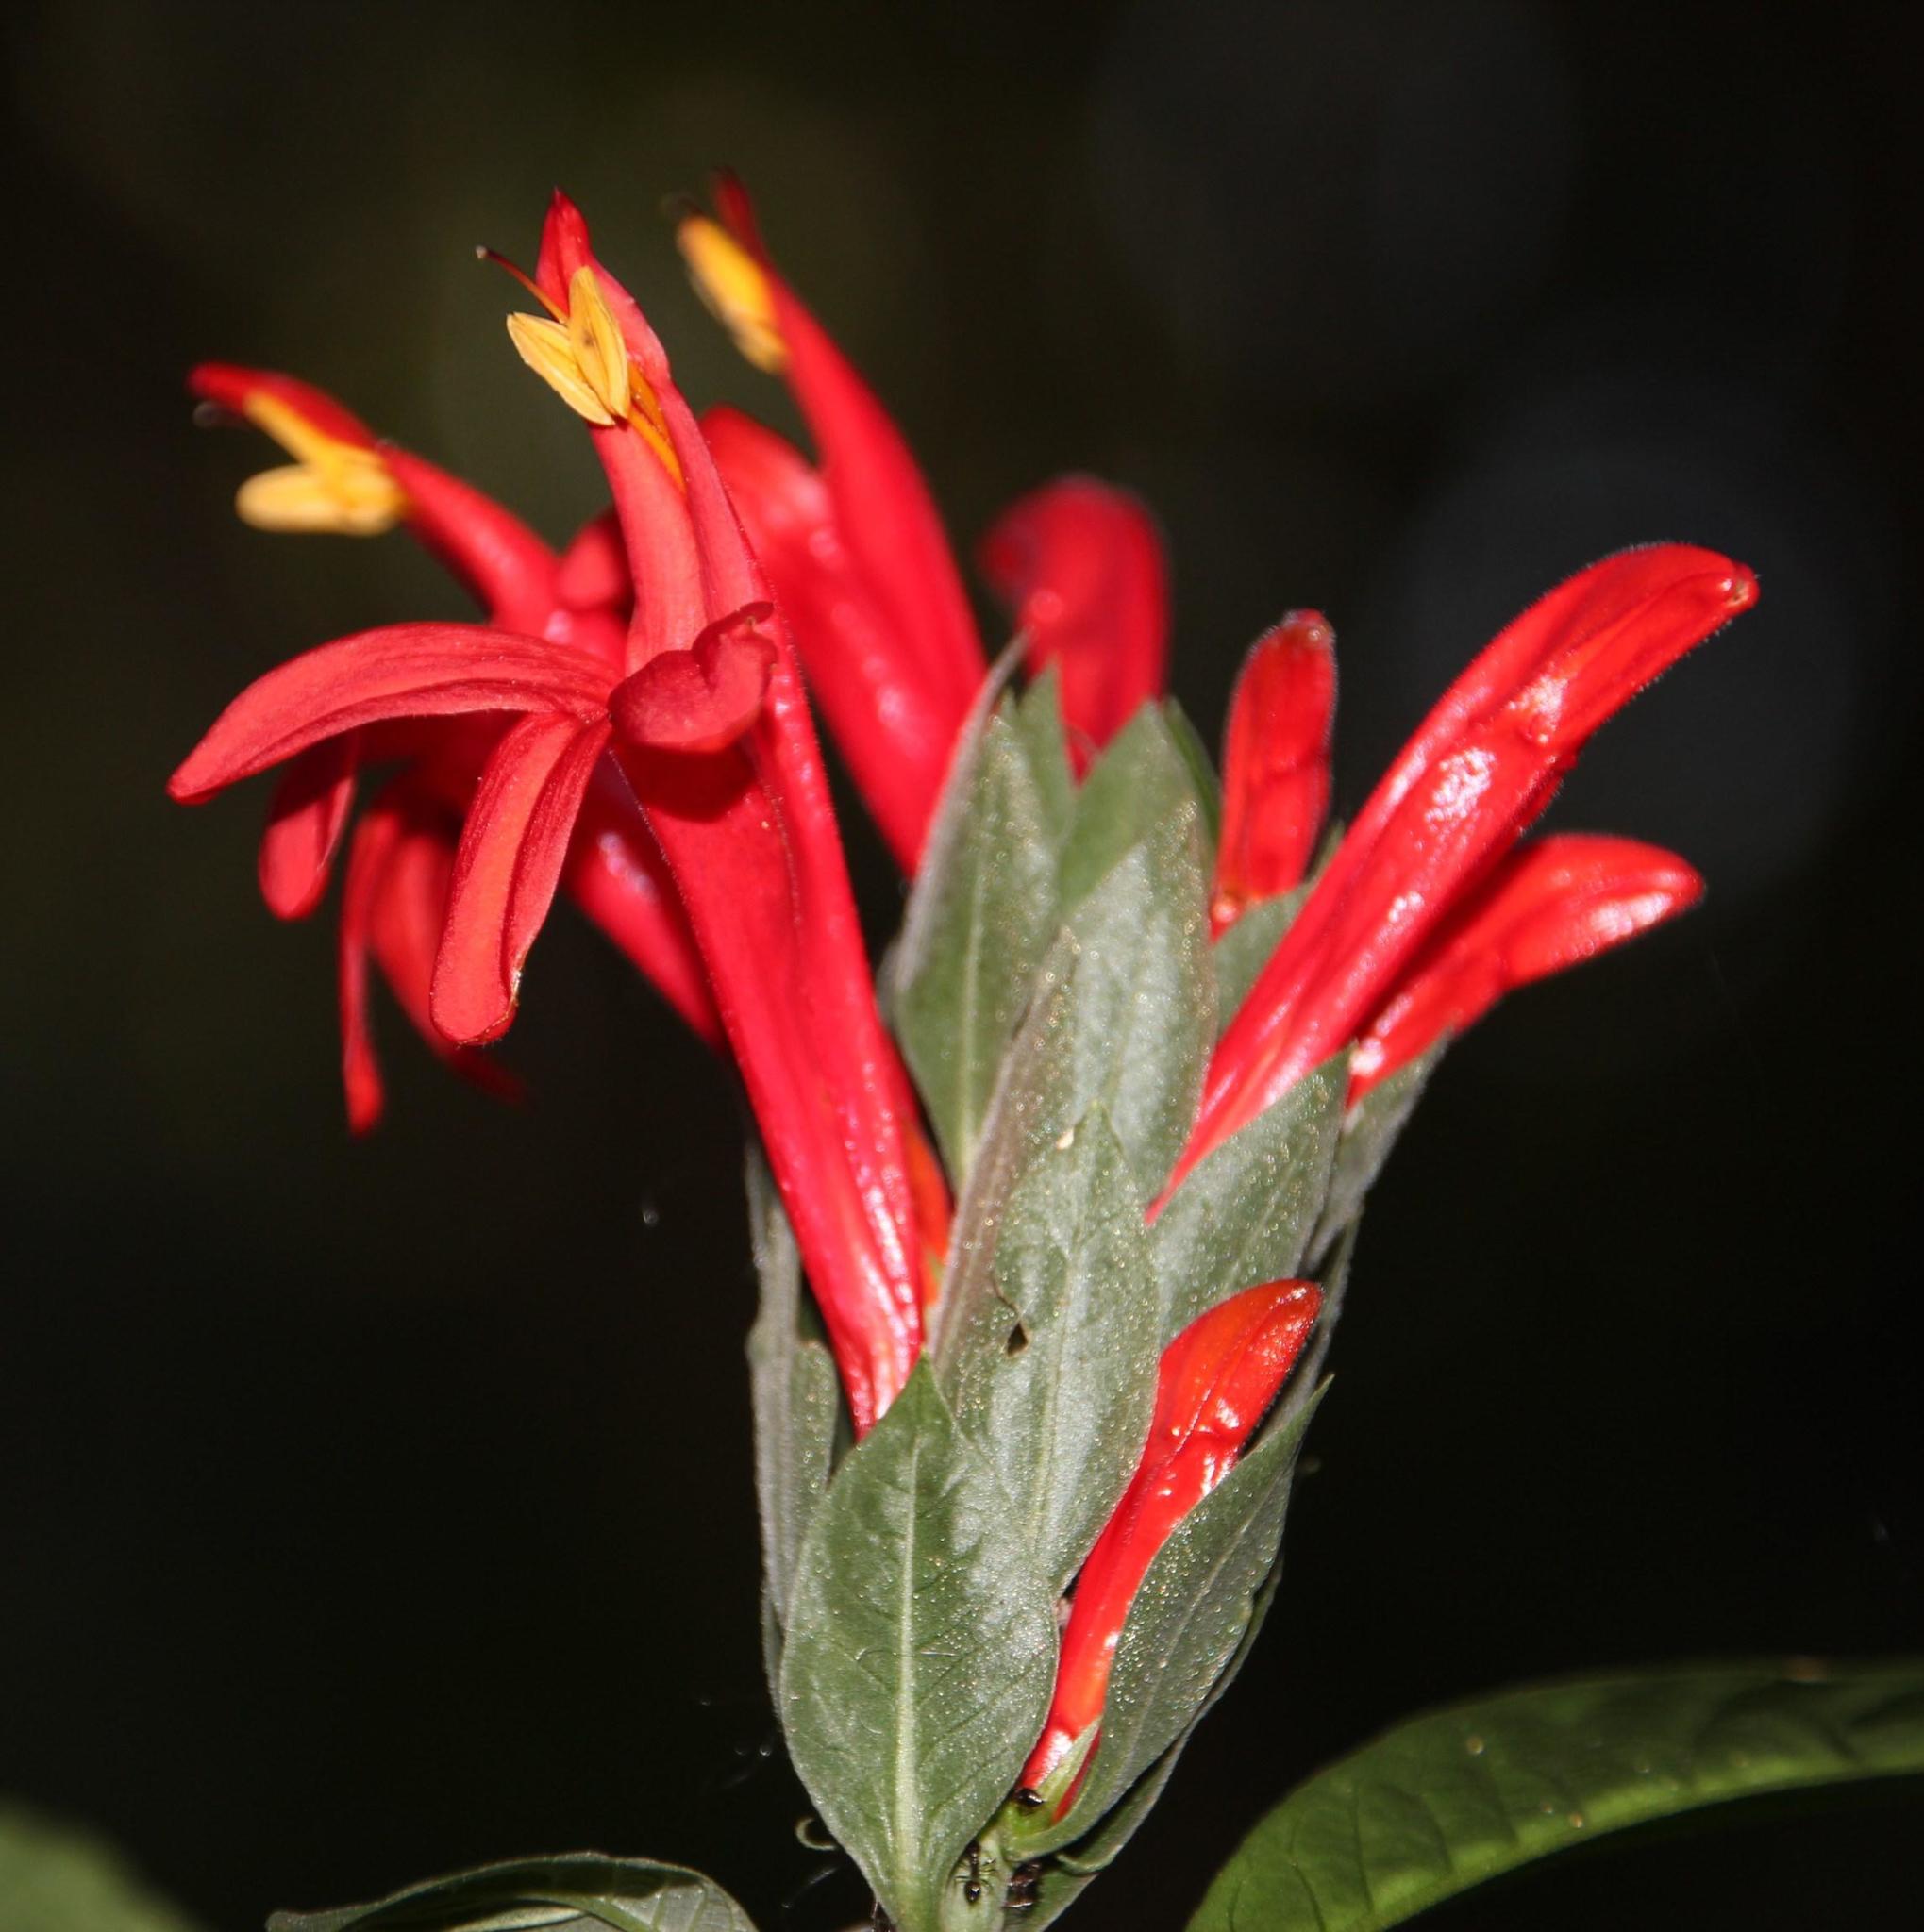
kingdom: Plantae
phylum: Tracheophyta
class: Magnoliopsida
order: Lamiales
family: Acanthaceae
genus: Pachystachys
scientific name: Pachystachys spicata
